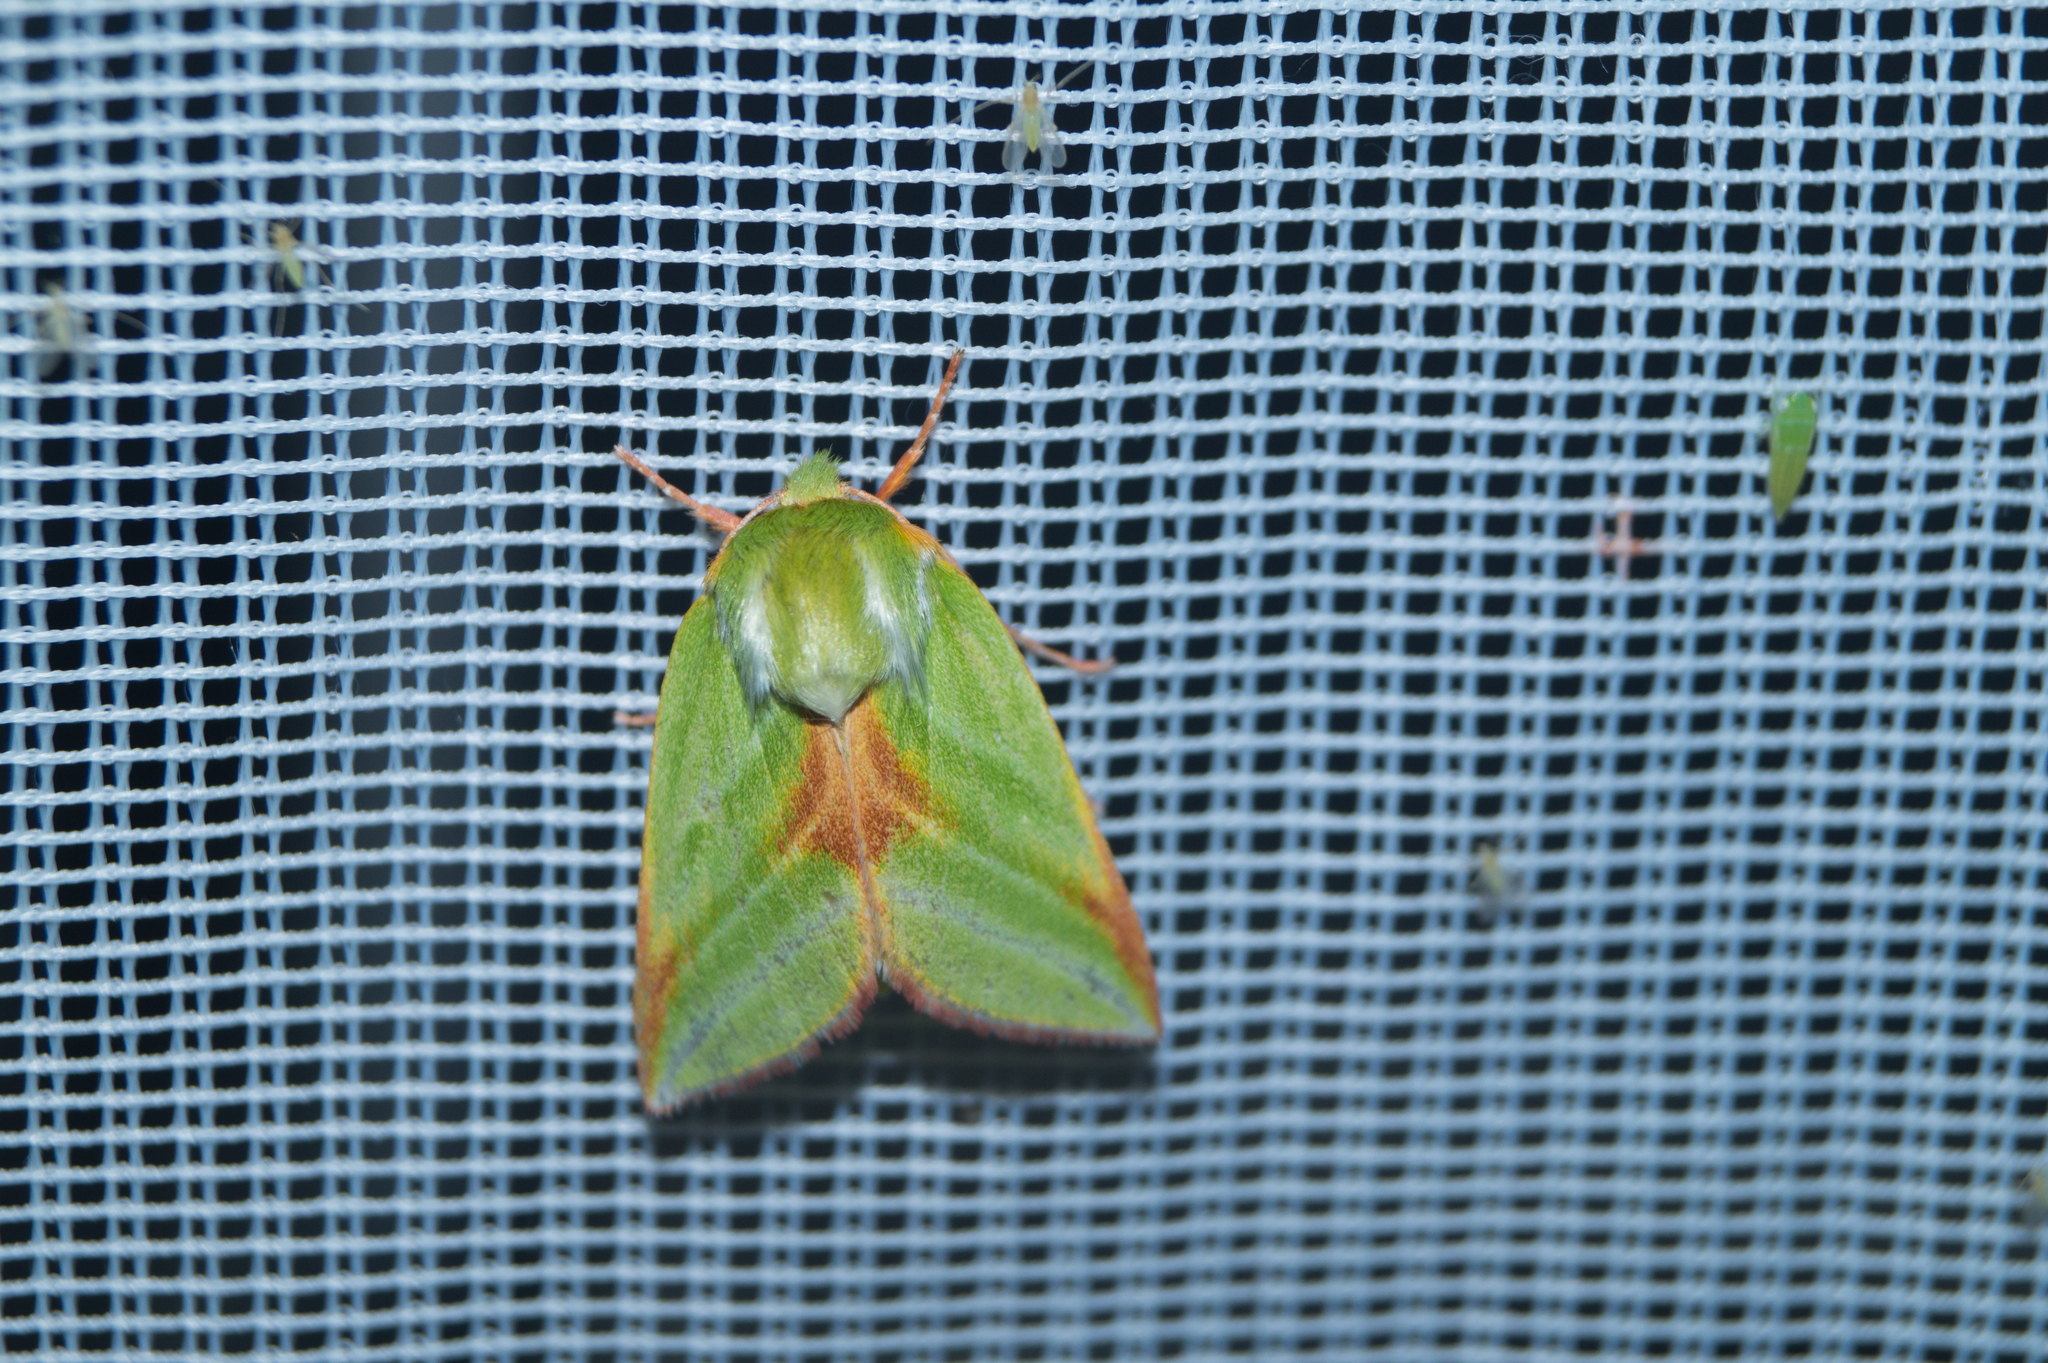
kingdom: Animalia
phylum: Arthropoda
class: Insecta
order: Lepidoptera
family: Nolidae
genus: Pseudoips
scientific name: Pseudoips prasinana
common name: Green silver-lines
